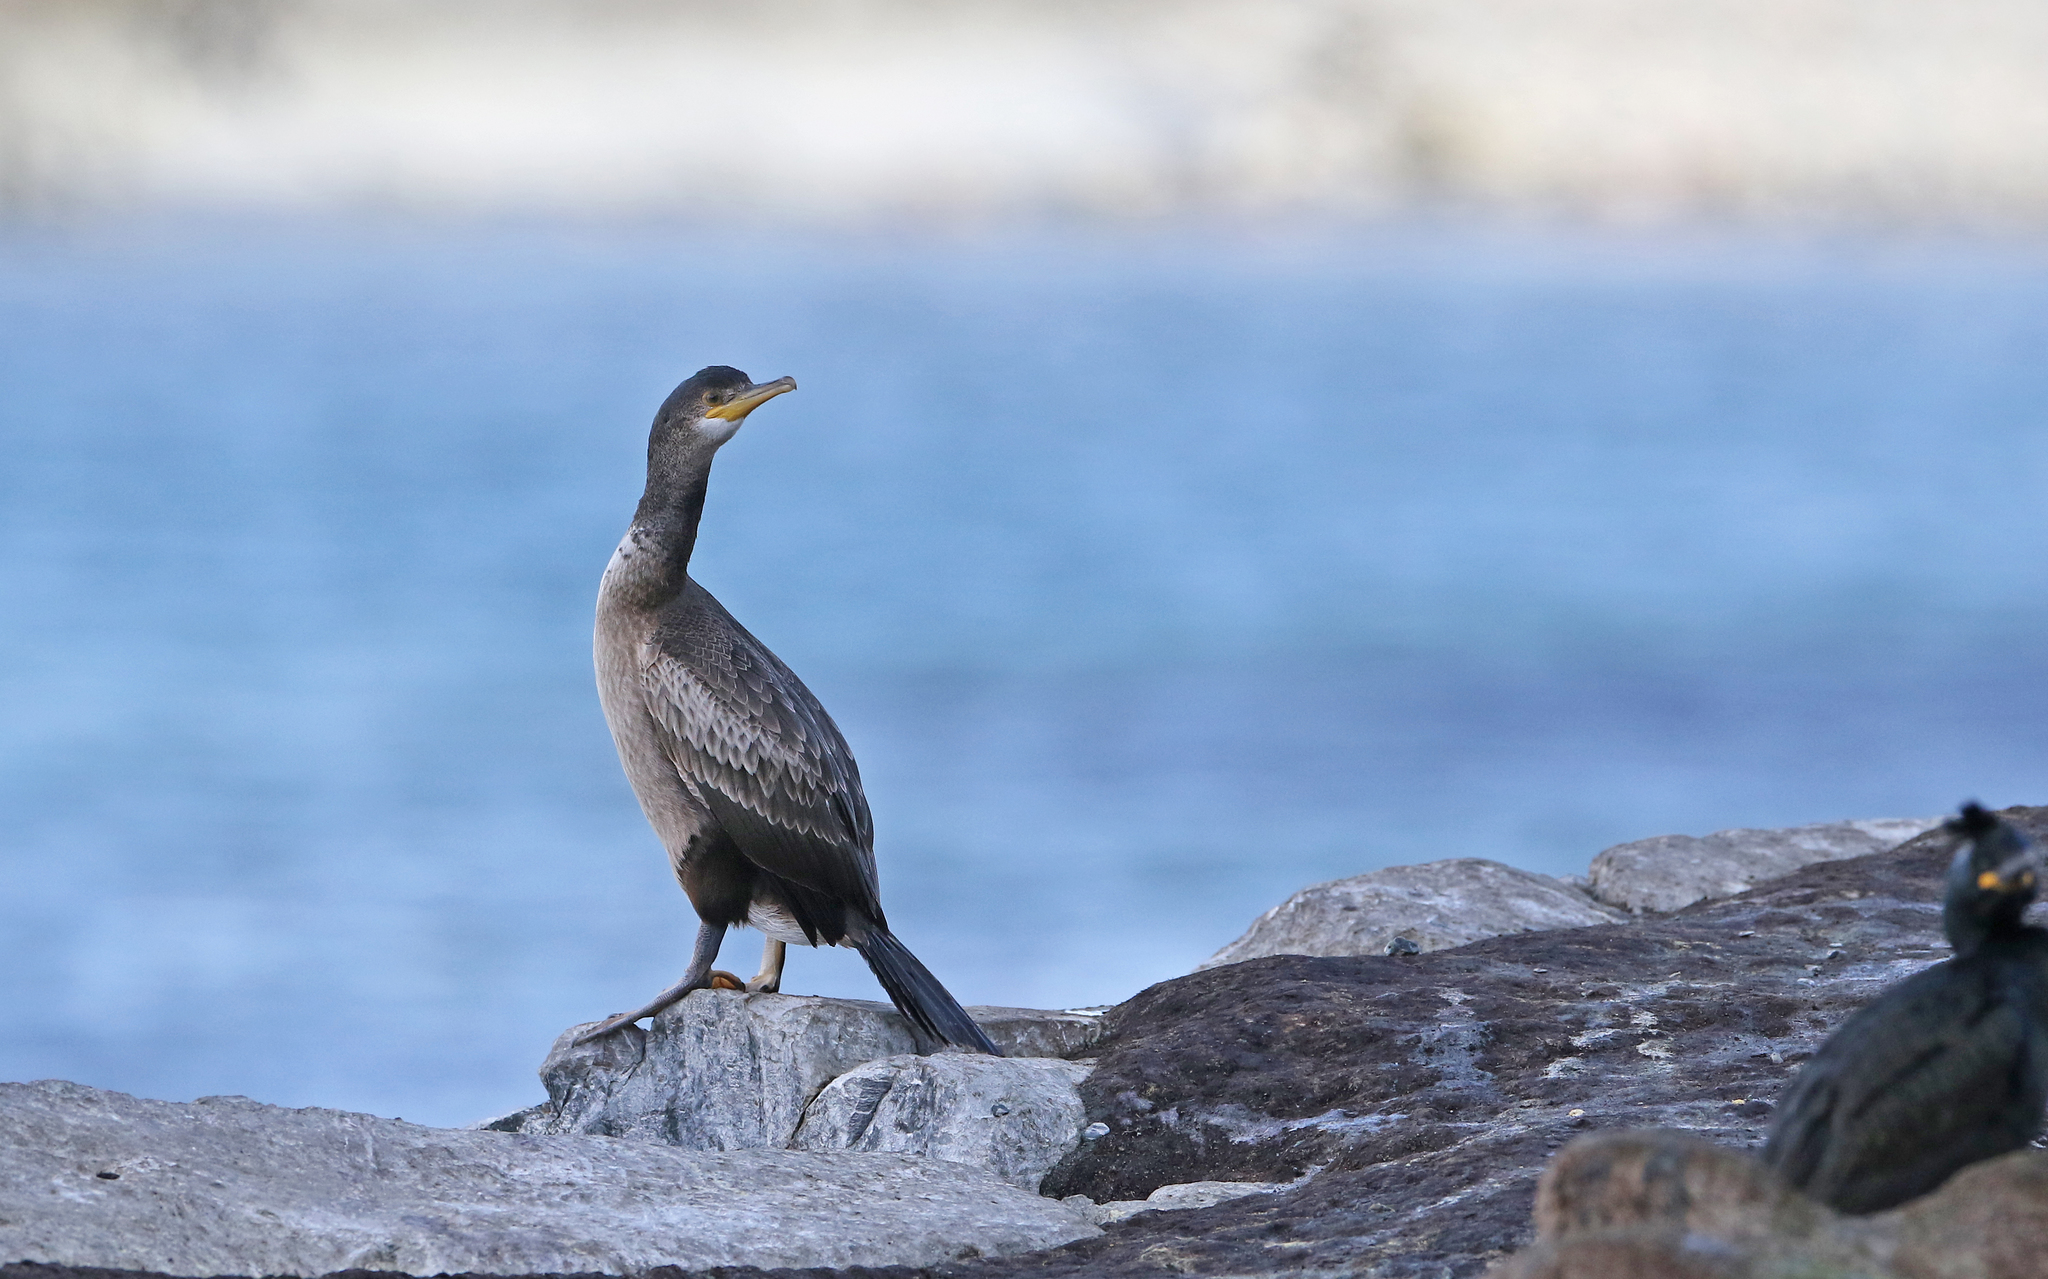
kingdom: Animalia
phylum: Chordata
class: Aves
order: Suliformes
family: Phalacrocoracidae
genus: Phalacrocorax
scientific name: Phalacrocorax aristotelis
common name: European shag
